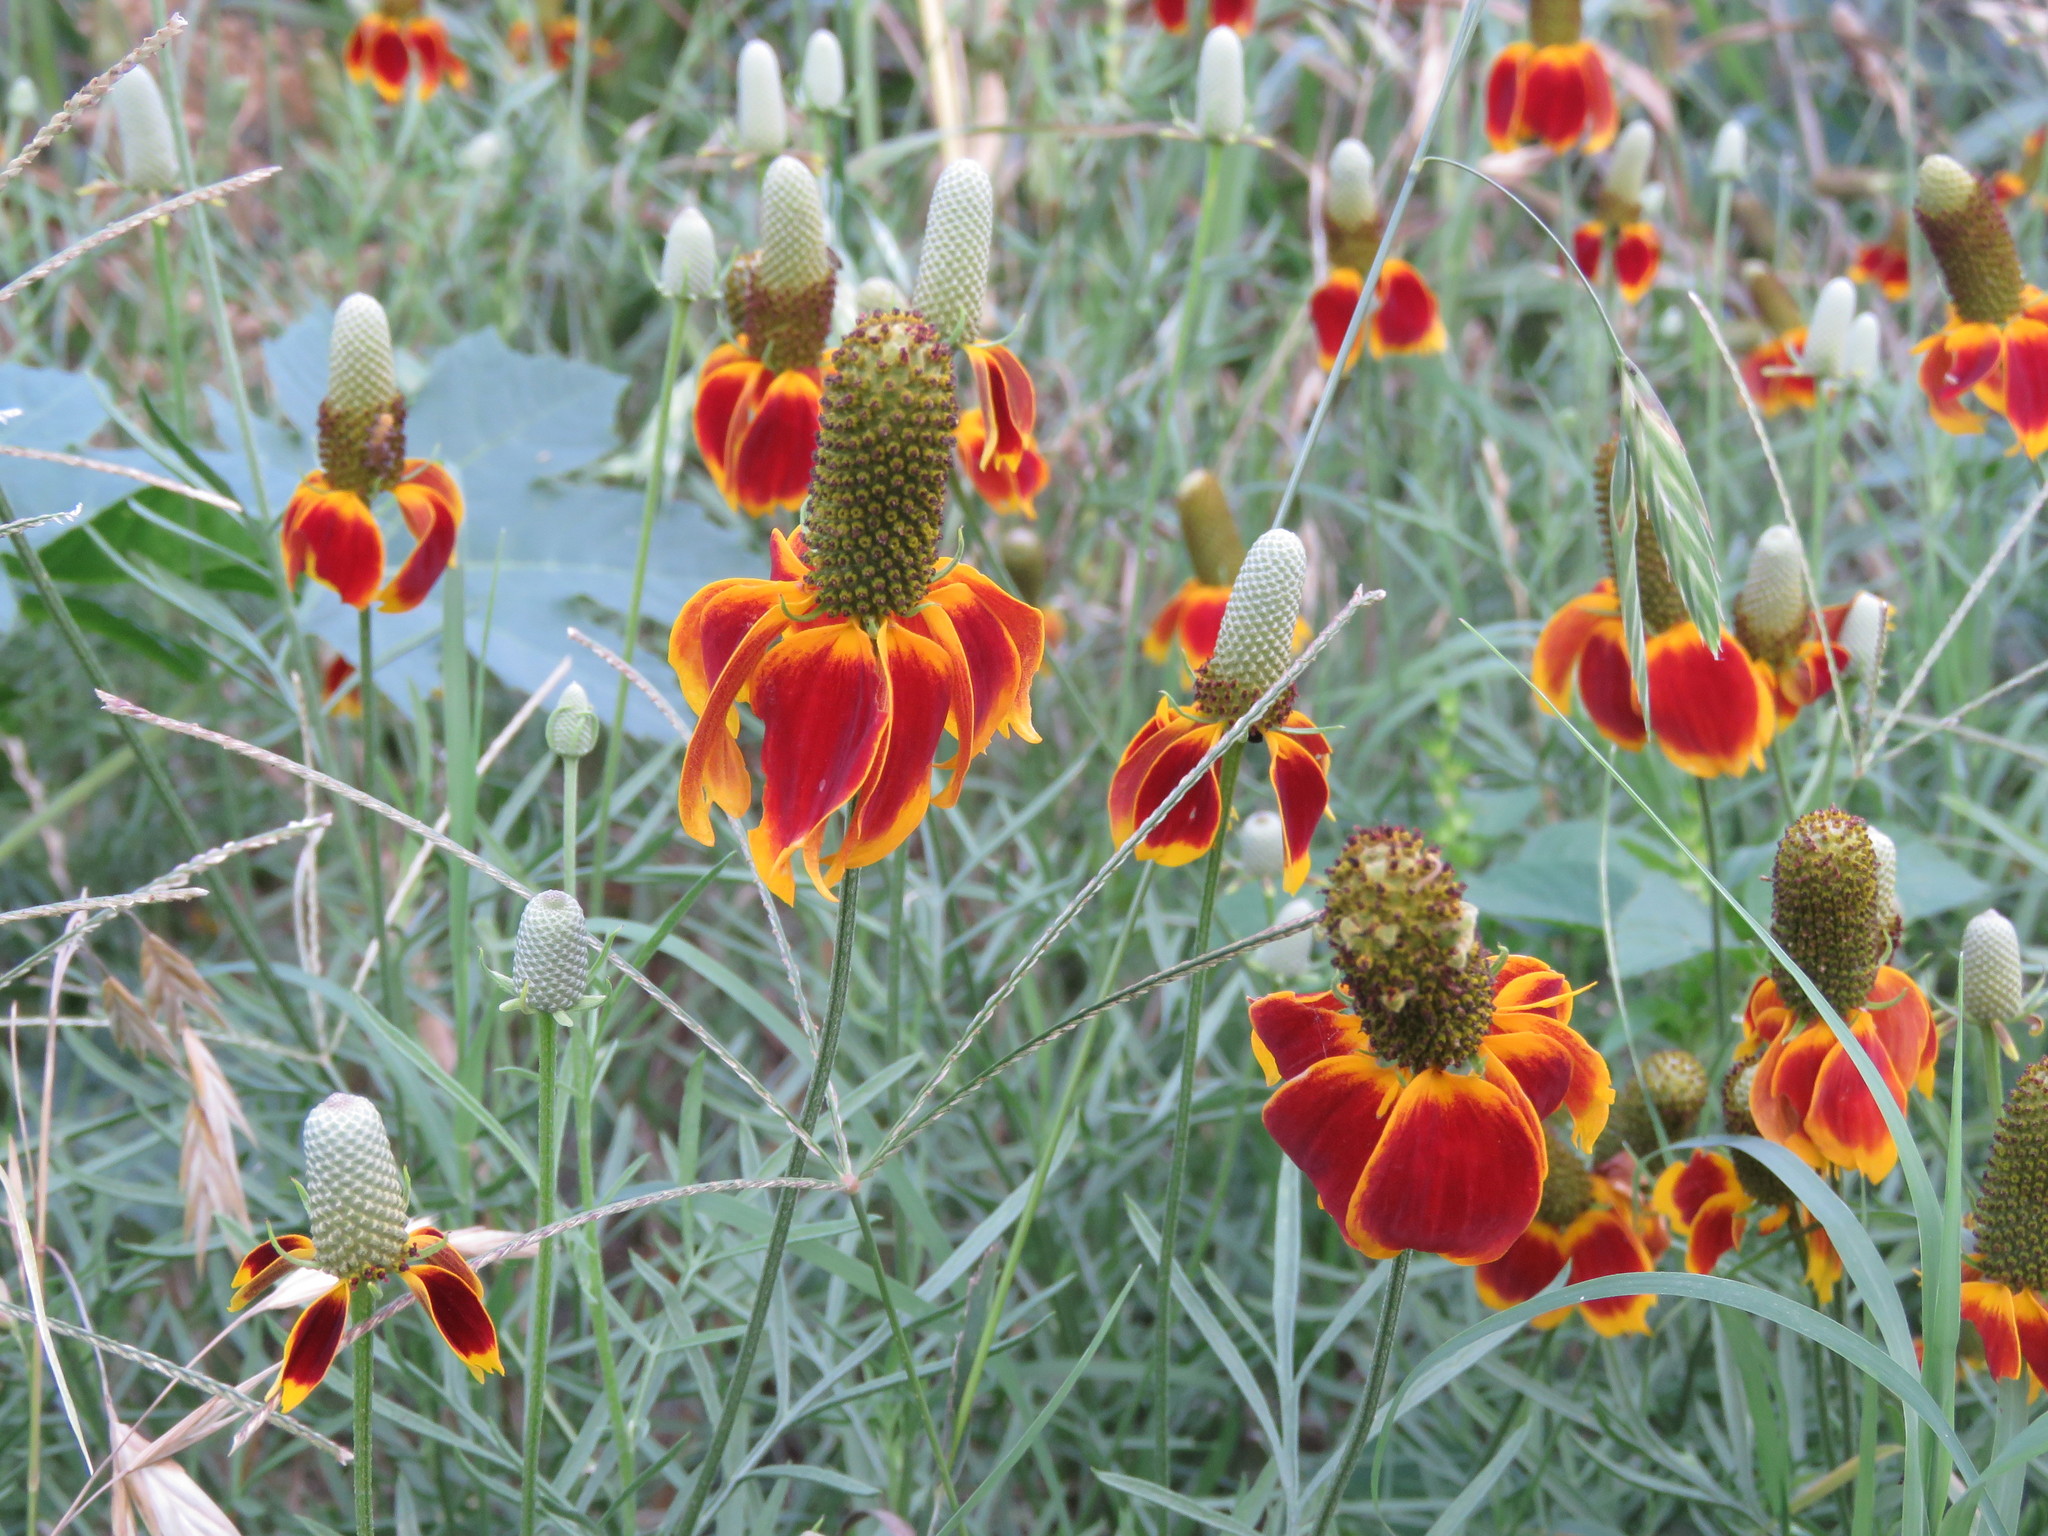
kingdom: Plantae
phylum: Tracheophyta
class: Magnoliopsida
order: Asterales
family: Asteraceae
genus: Ratibida
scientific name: Ratibida columnifera
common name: Prairie coneflower
